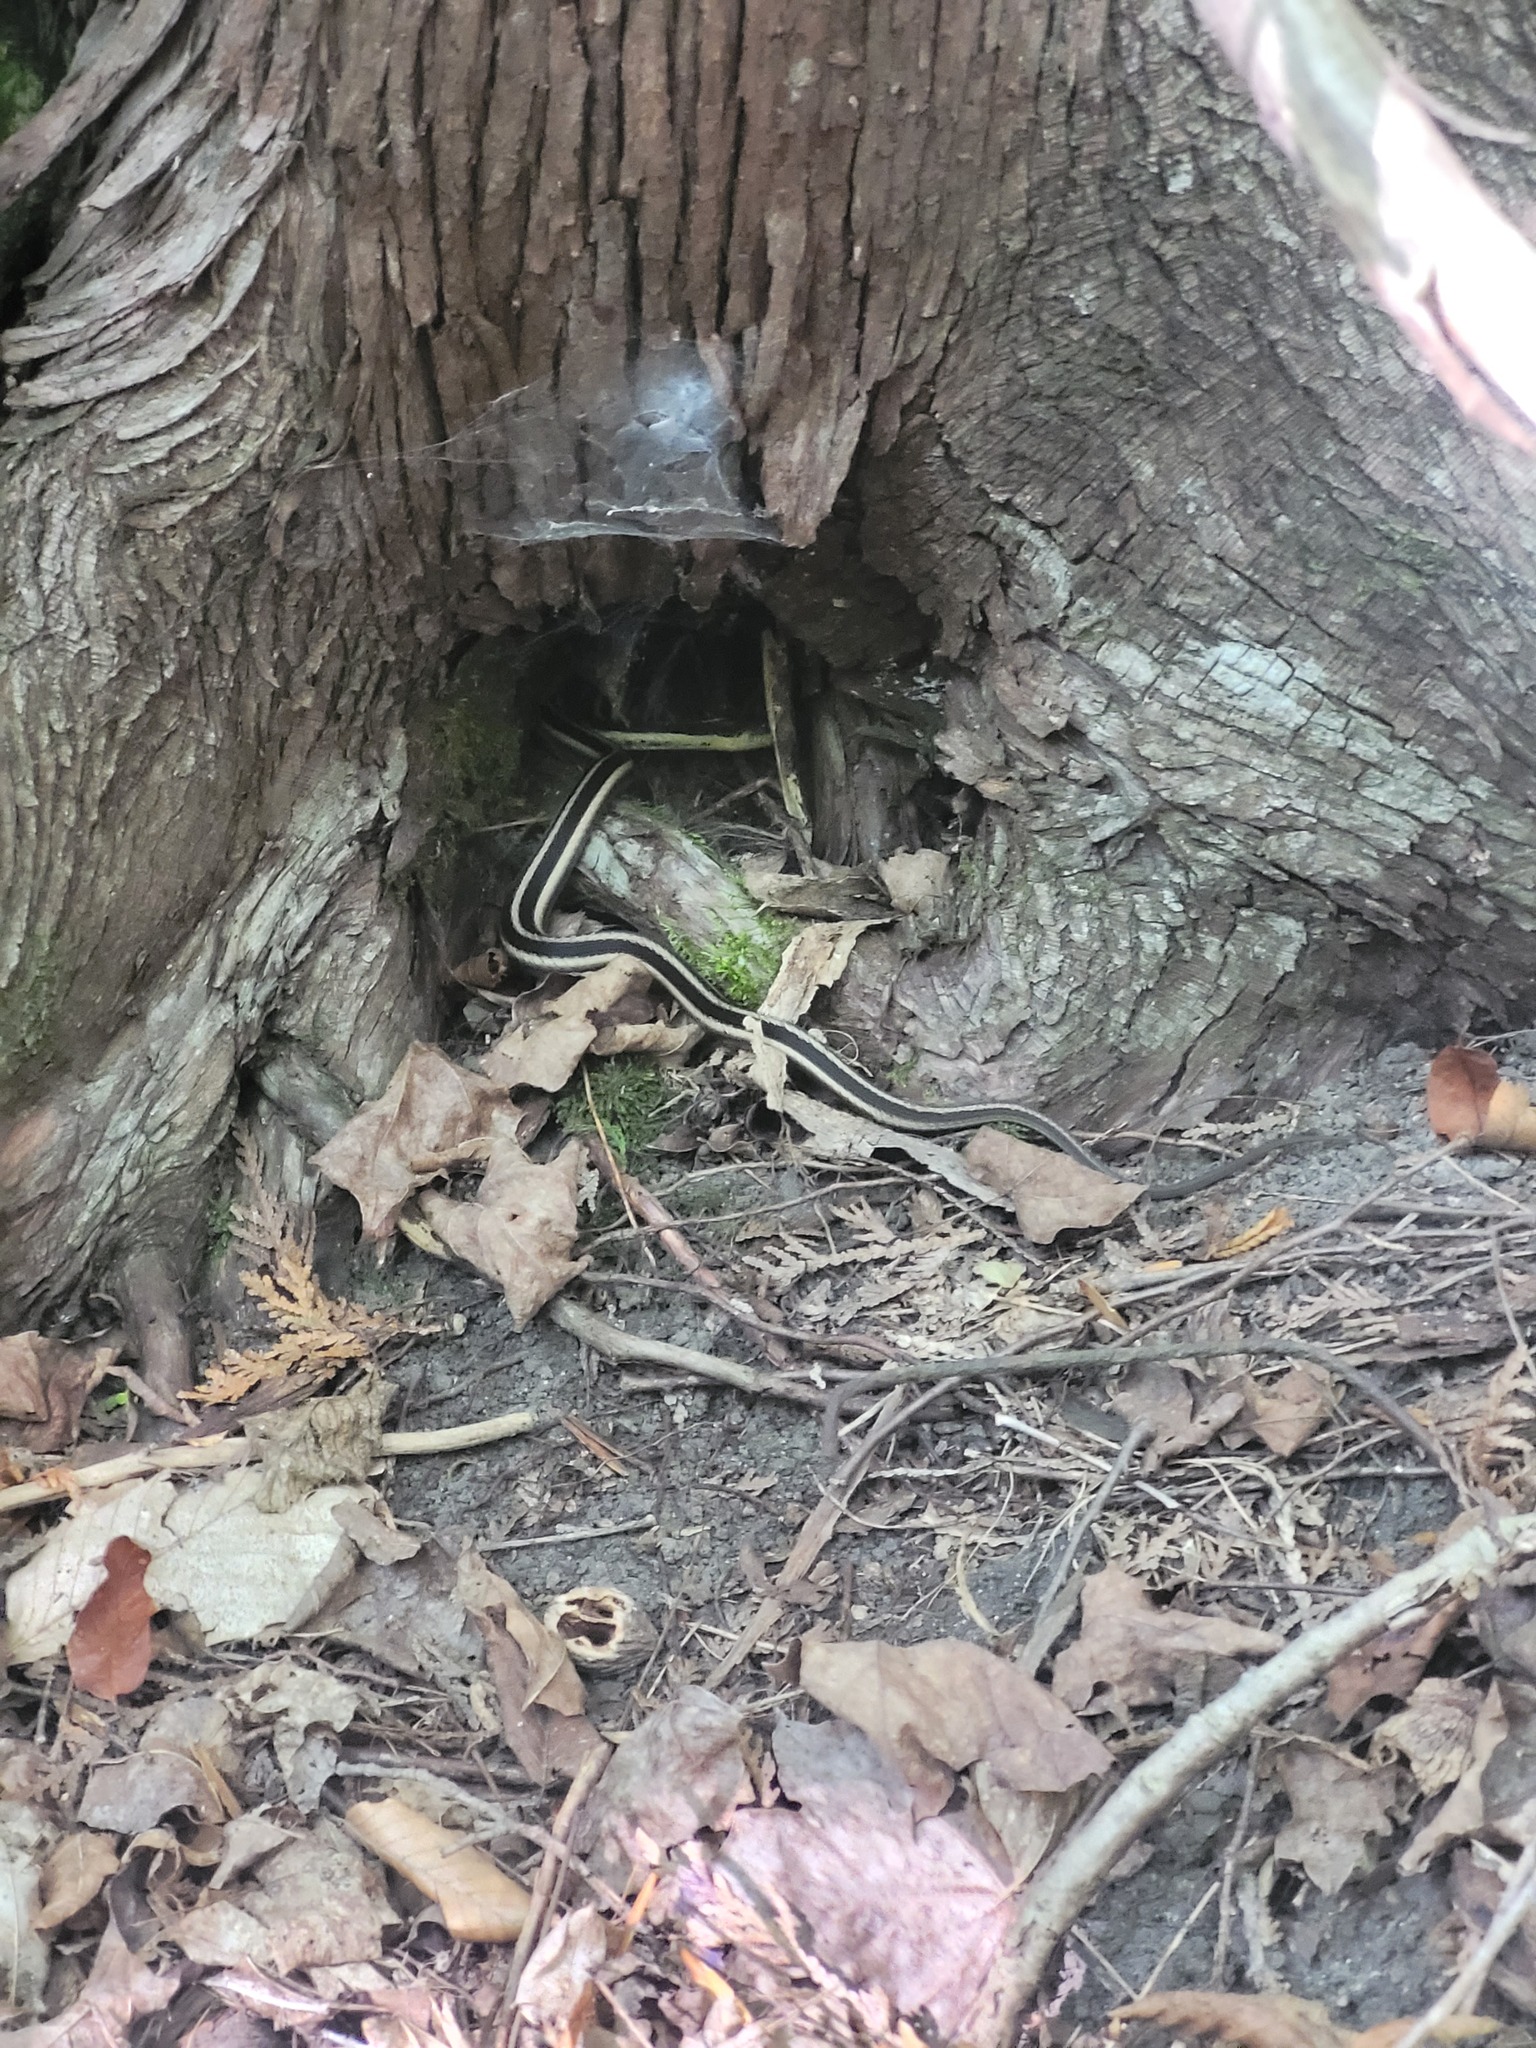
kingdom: Animalia
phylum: Chordata
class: Squamata
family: Colubridae
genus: Thamnophis
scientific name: Thamnophis sirtalis
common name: Common garter snake
